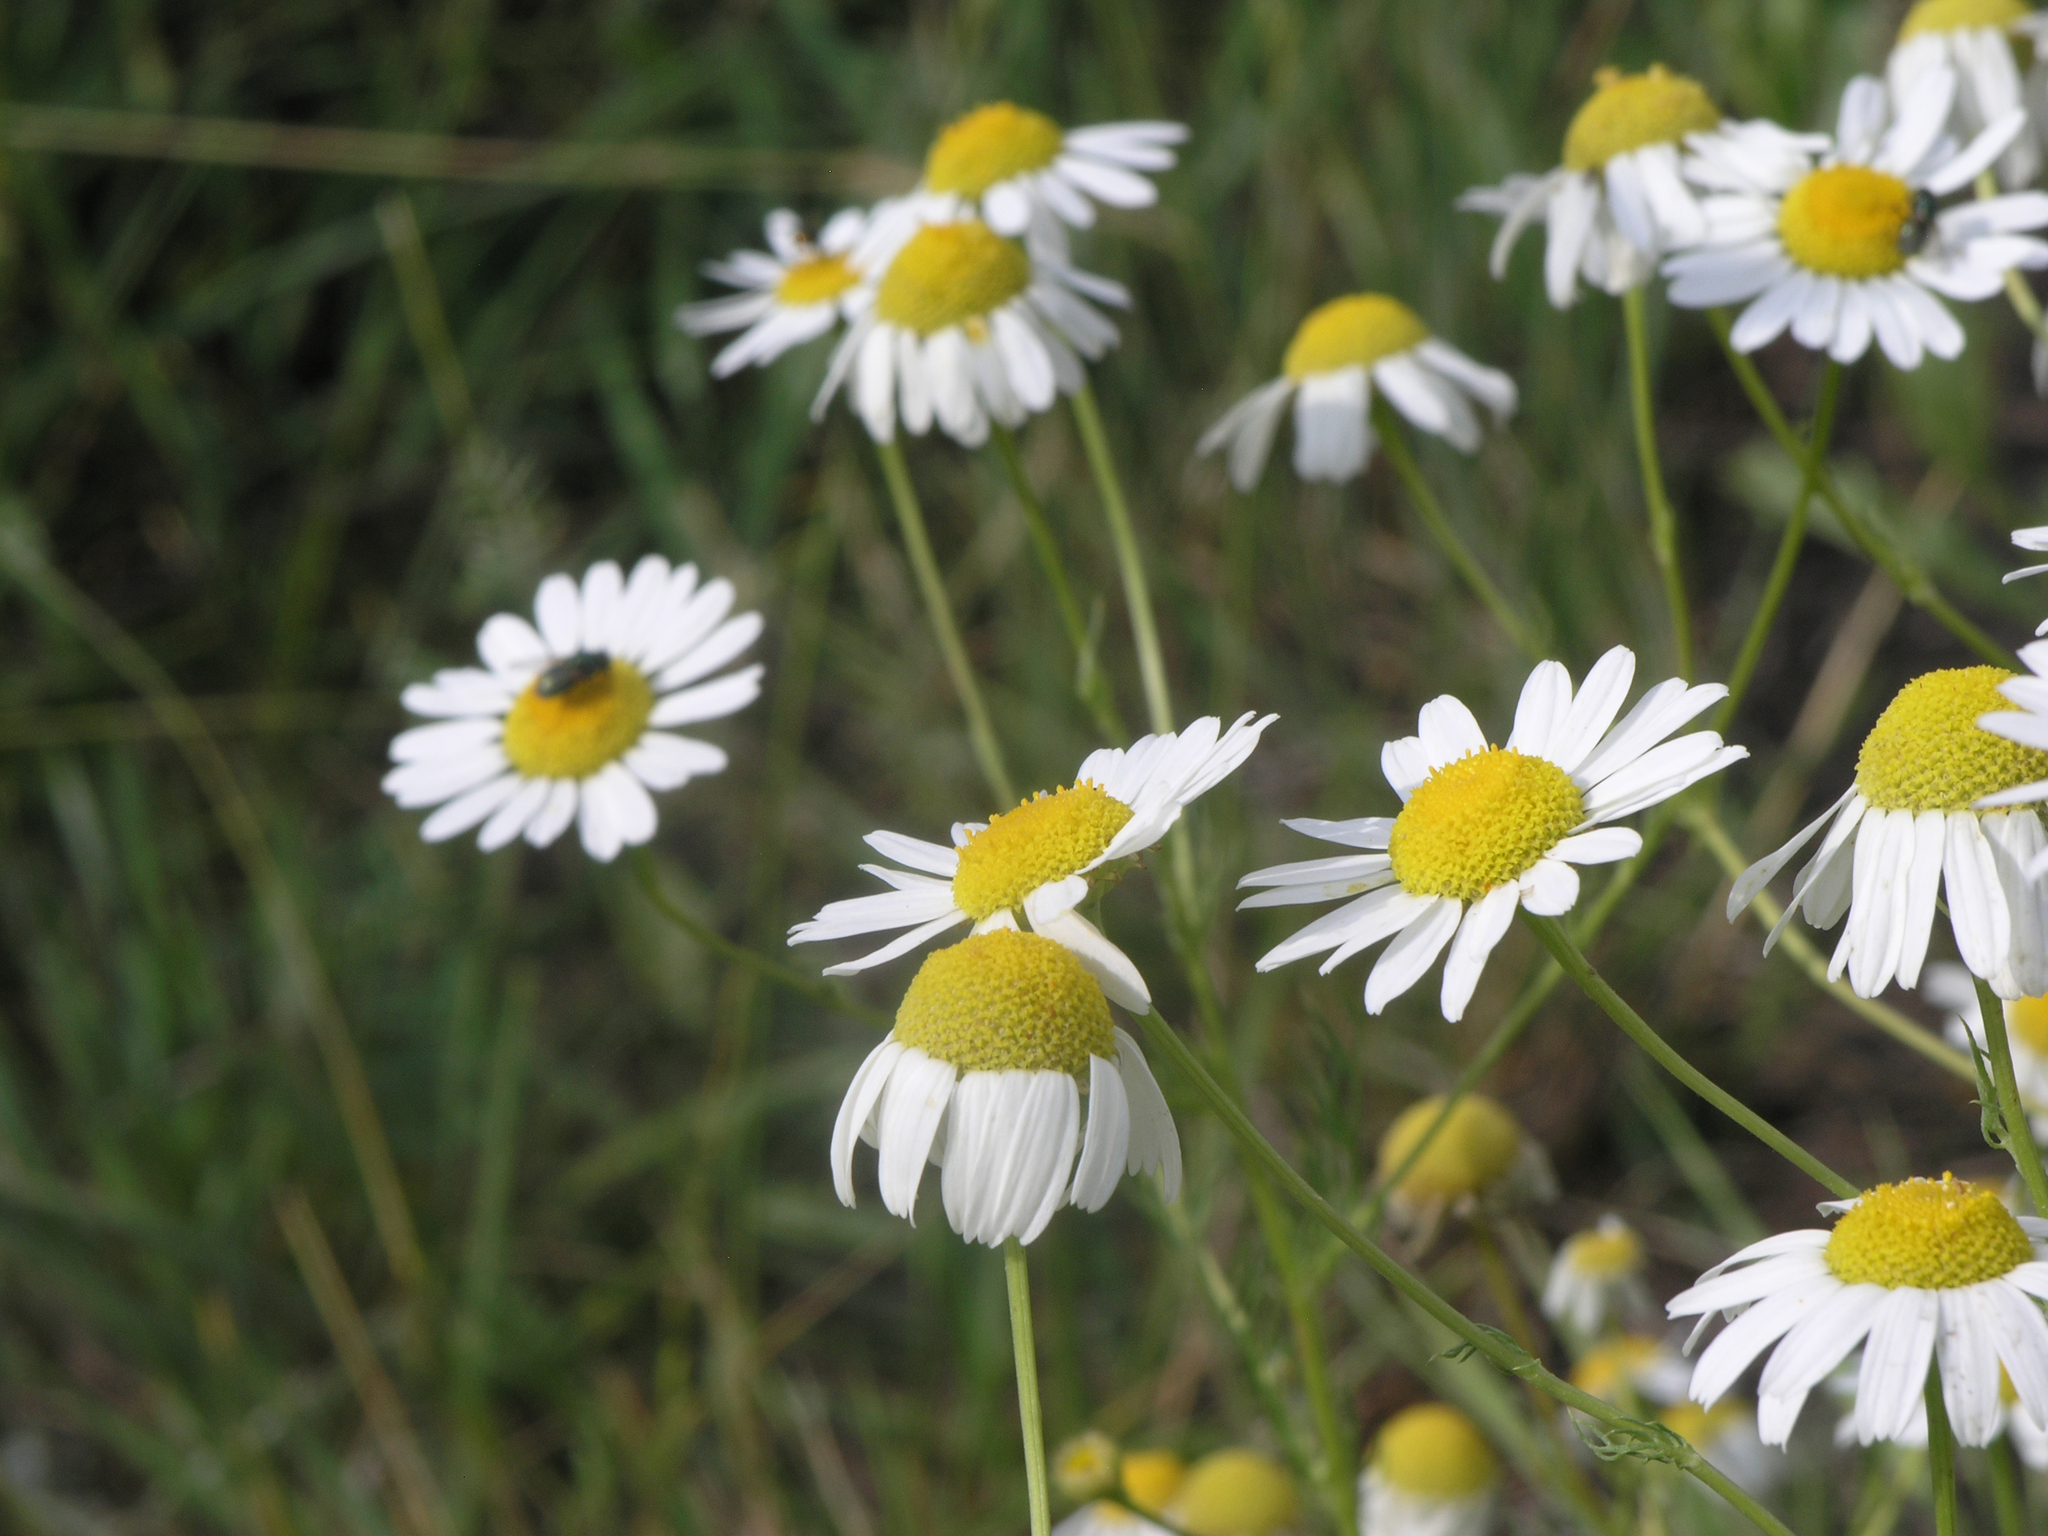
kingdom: Plantae
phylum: Tracheophyta
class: Magnoliopsida
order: Asterales
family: Asteraceae
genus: Tripleurospermum
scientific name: Tripleurospermum inodorum
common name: Scentless mayweed
